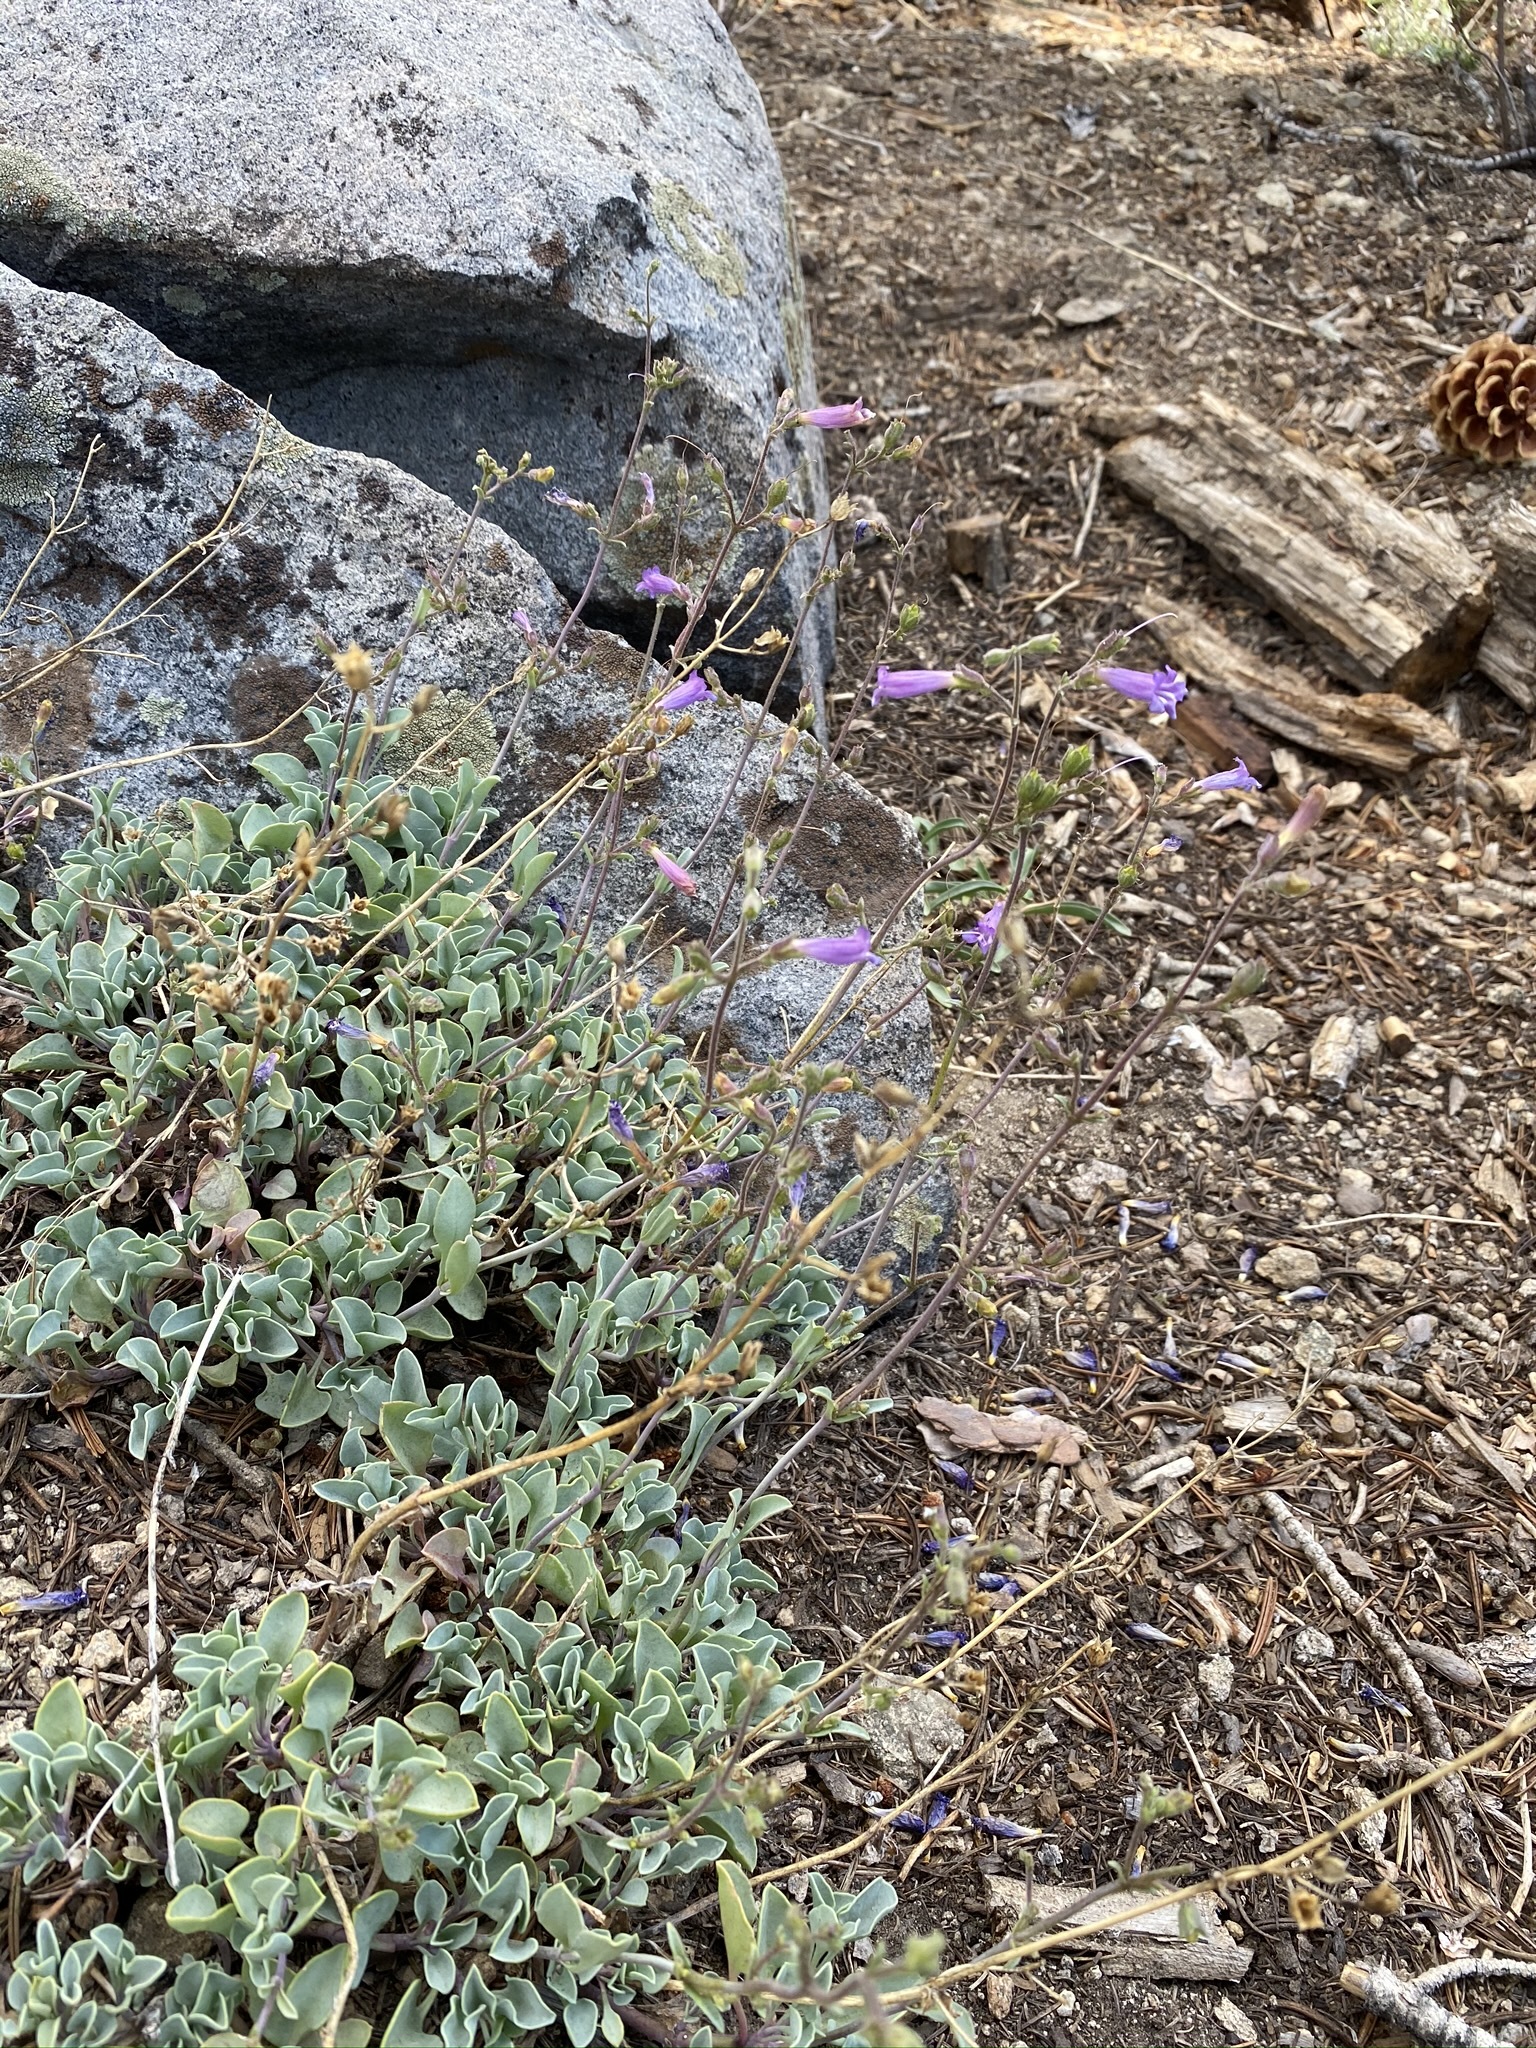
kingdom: Plantae
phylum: Tracheophyta
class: Magnoliopsida
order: Lamiales
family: Plantaginaceae
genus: Penstemon
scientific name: Penstemon caesius
